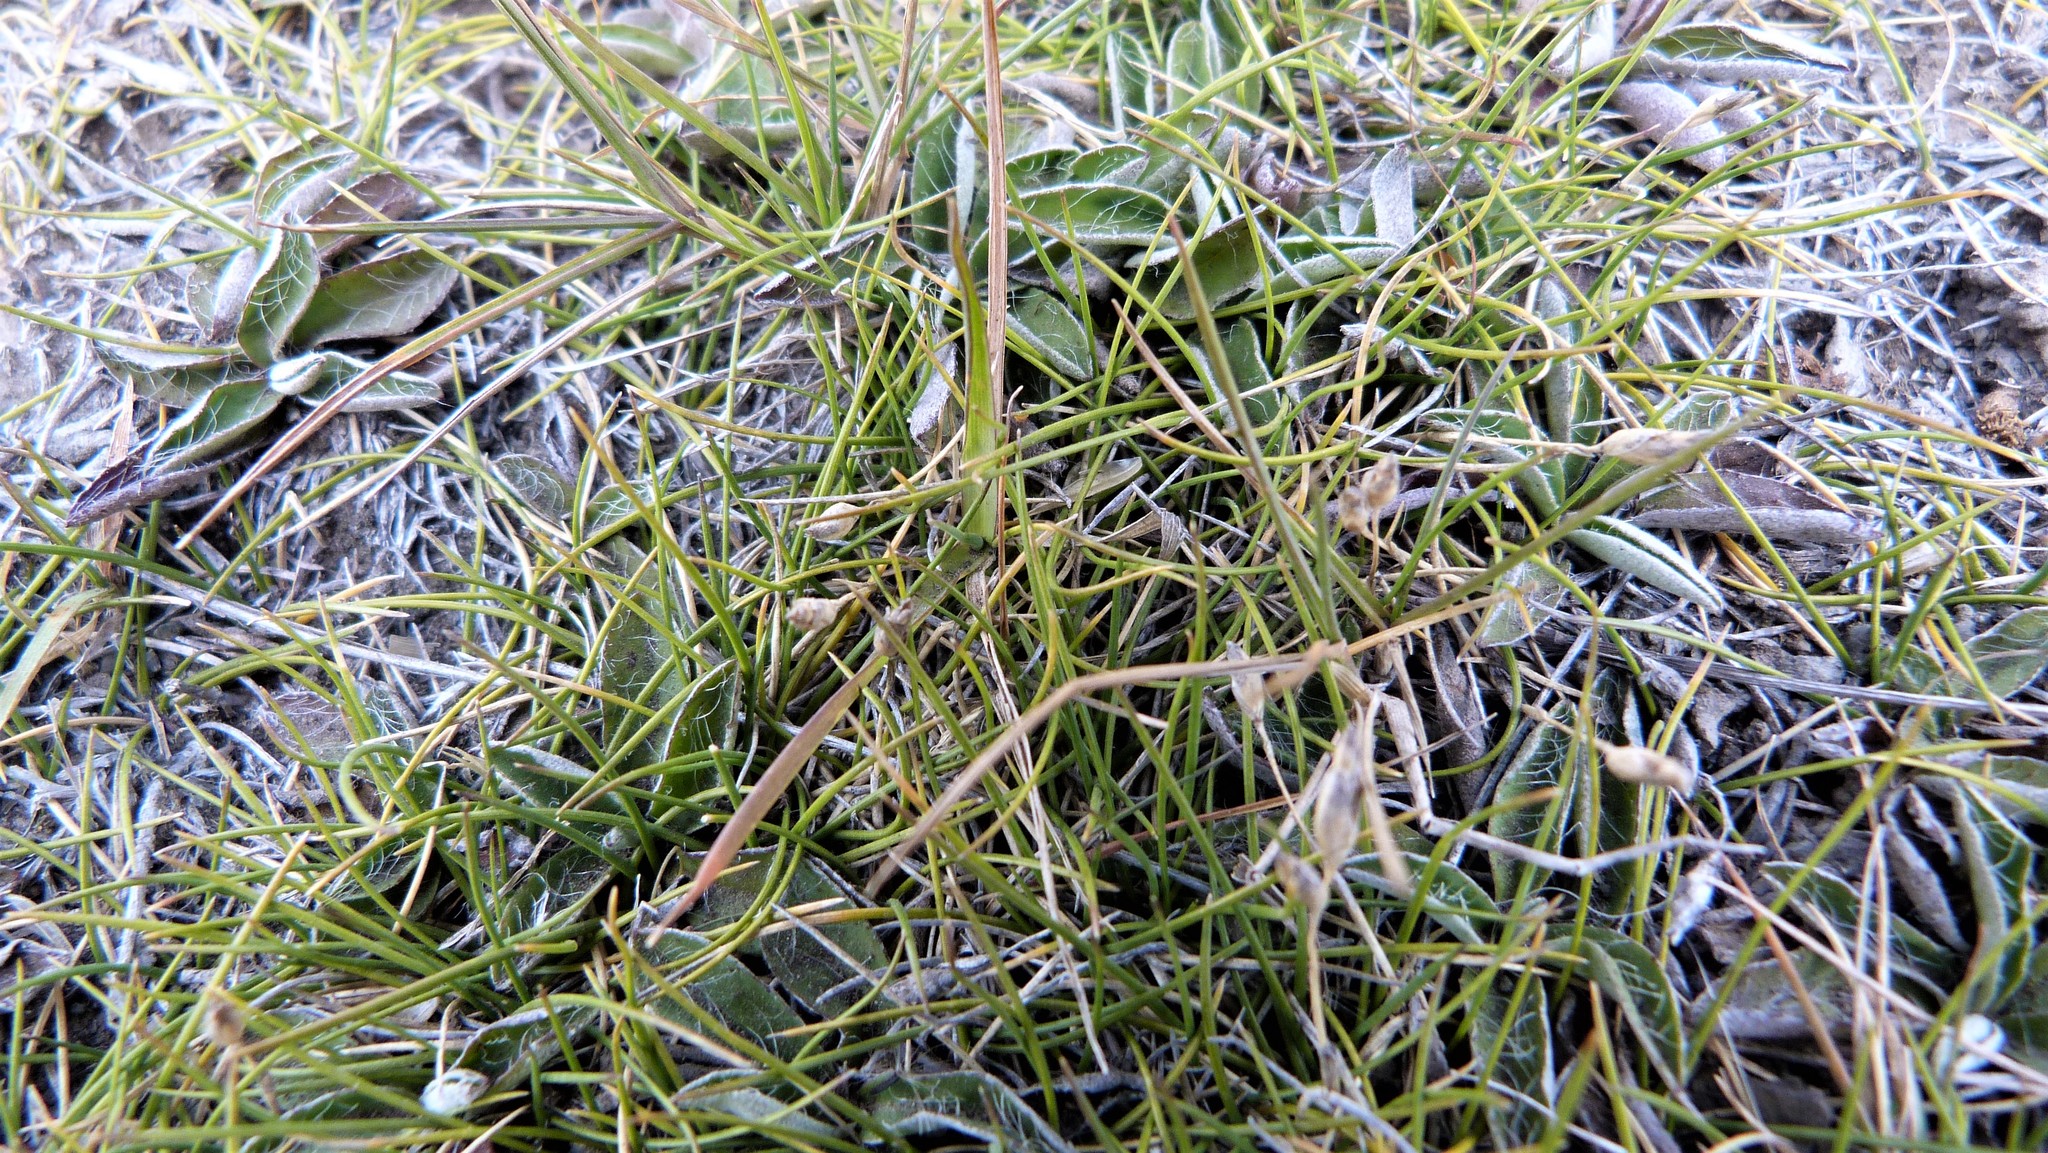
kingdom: Plantae
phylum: Tracheophyta
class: Liliopsida
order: Poales
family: Poaceae
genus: Rytidosperma
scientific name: Rytidosperma exiguum
